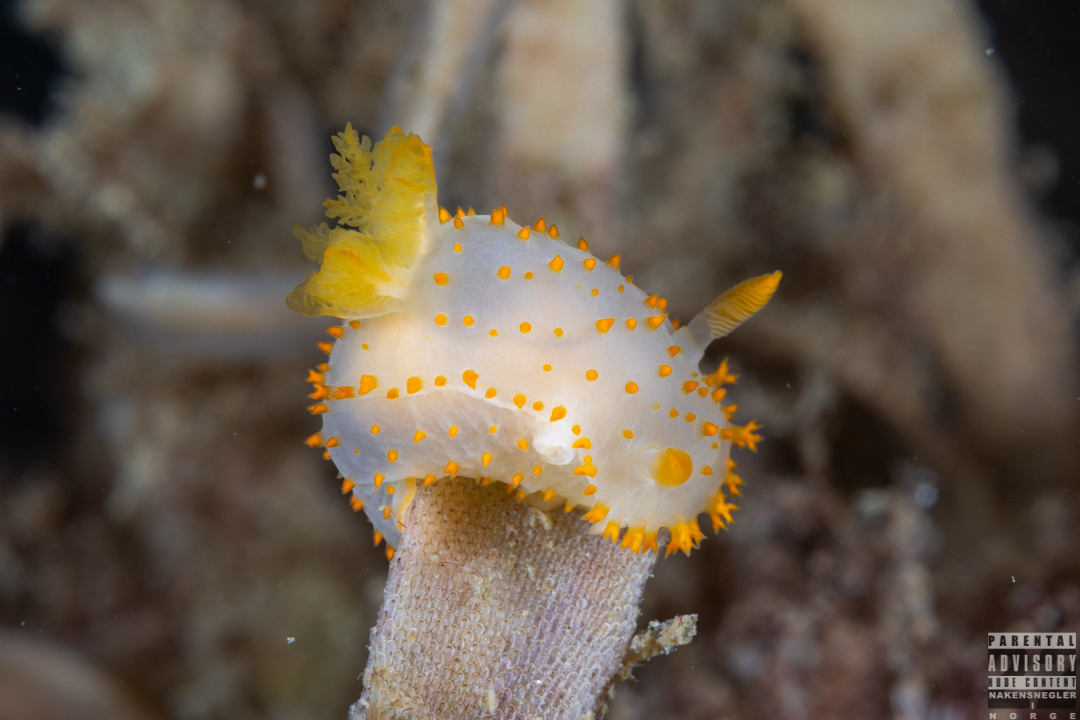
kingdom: Animalia
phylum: Mollusca
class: Gastropoda
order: Nudibranchia
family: Polyceridae
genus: Crimora
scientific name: Crimora papillata
